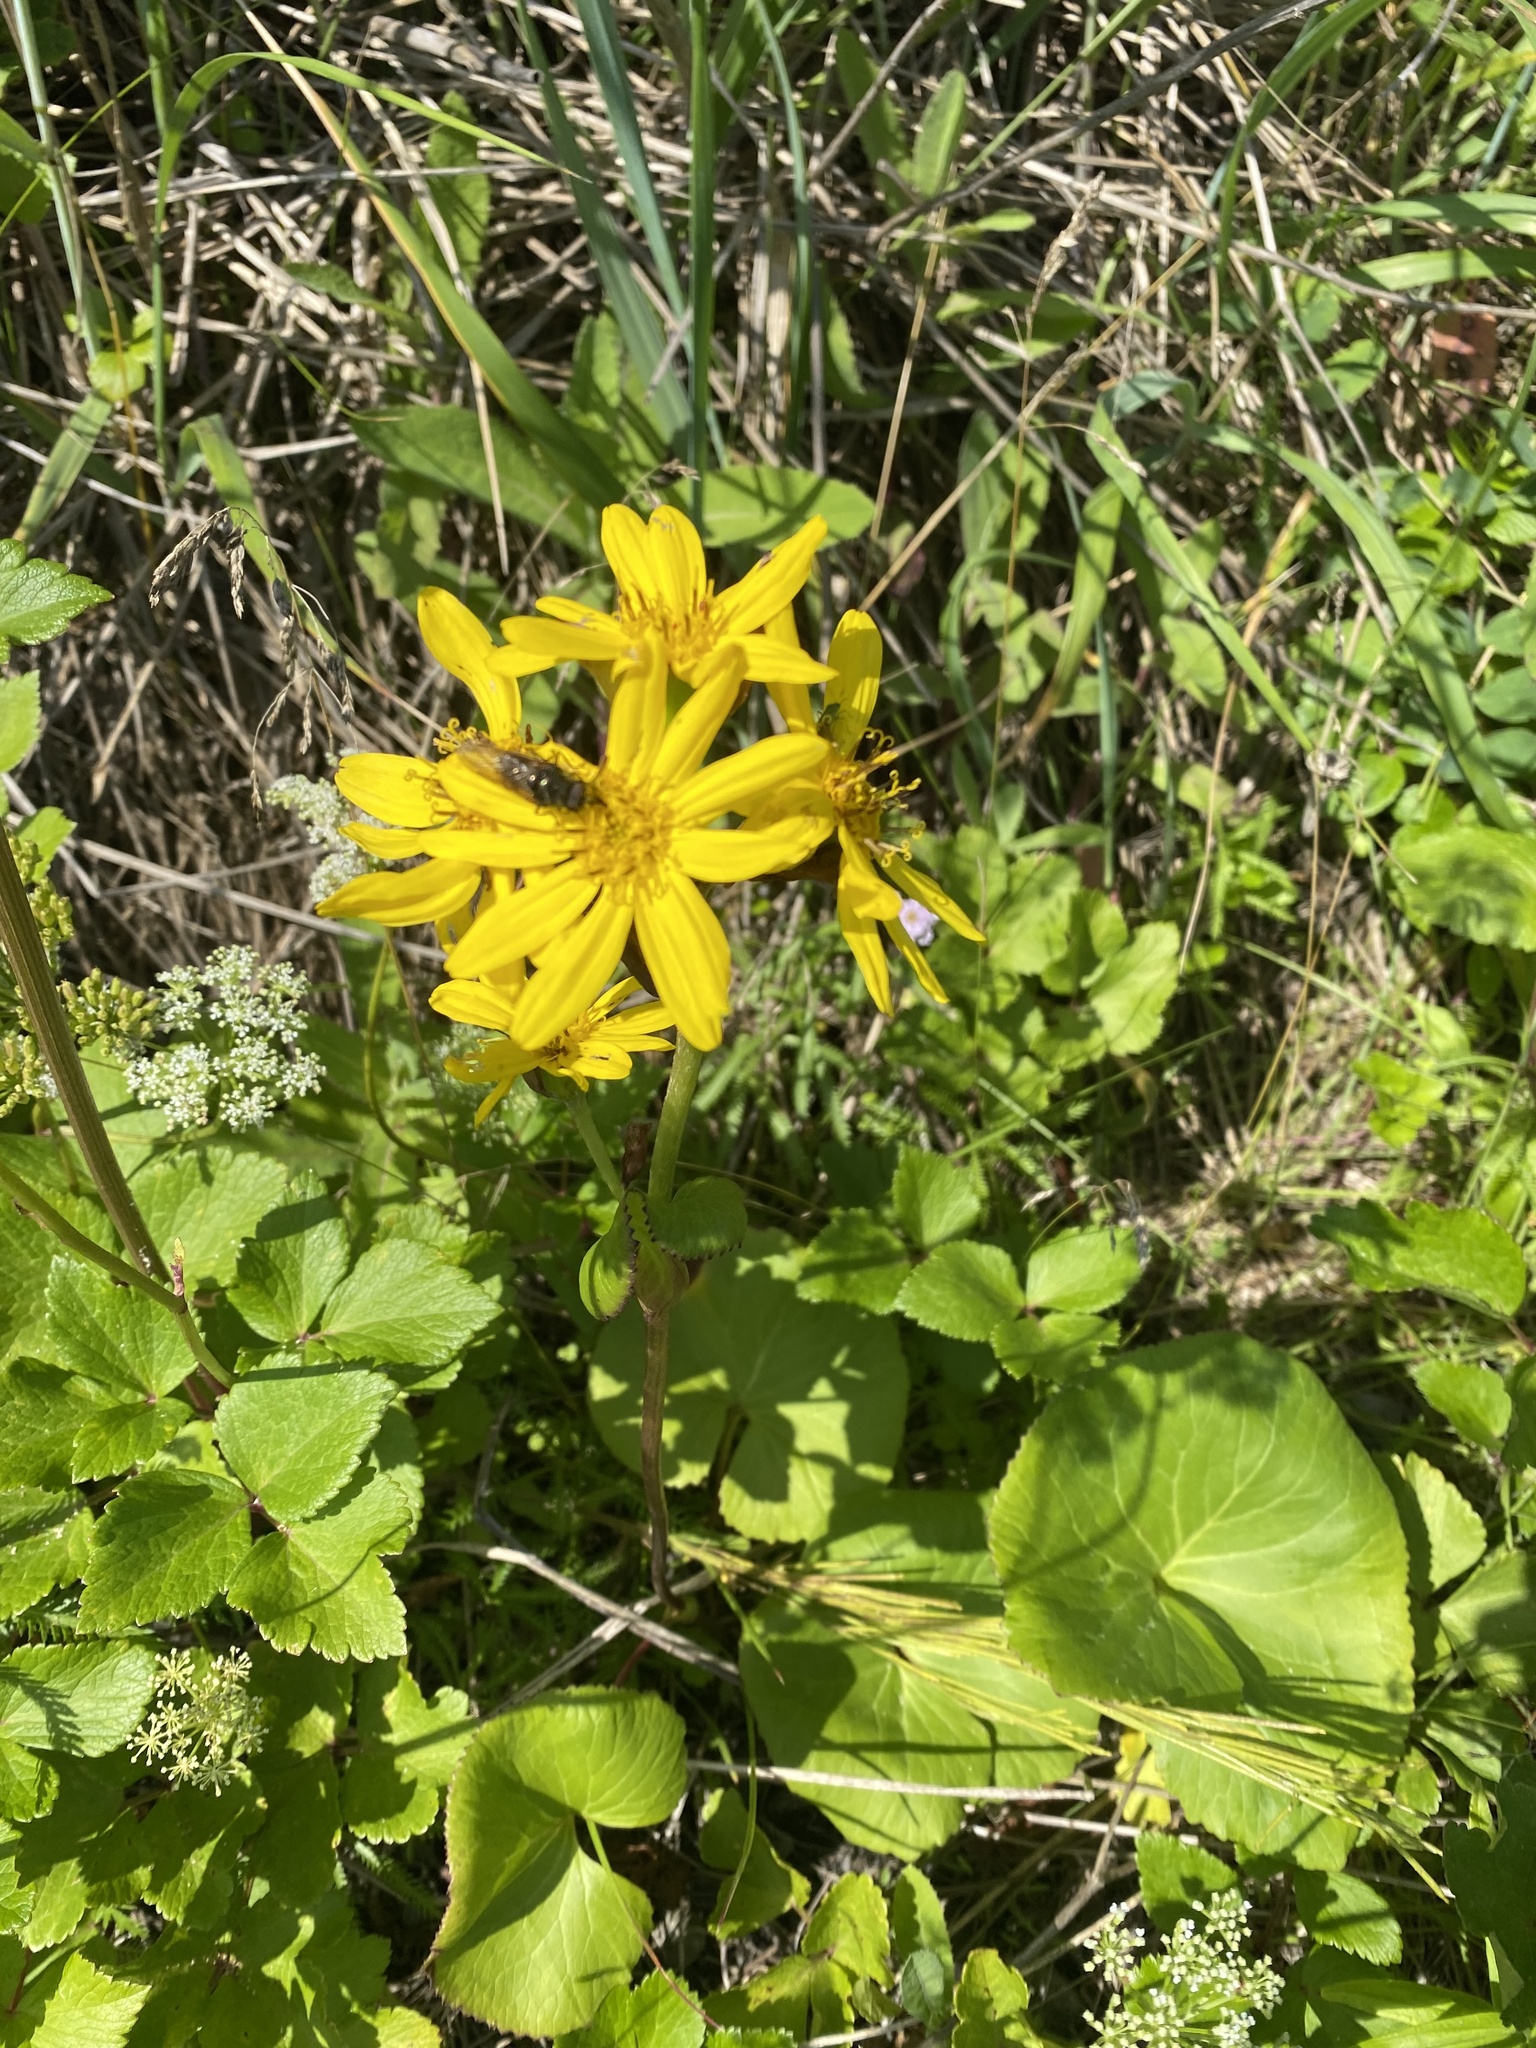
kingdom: Plantae
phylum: Tracheophyta
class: Magnoliopsida
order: Asterales
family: Asteraceae
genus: Ligularia
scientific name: Ligularia hodgsonii
